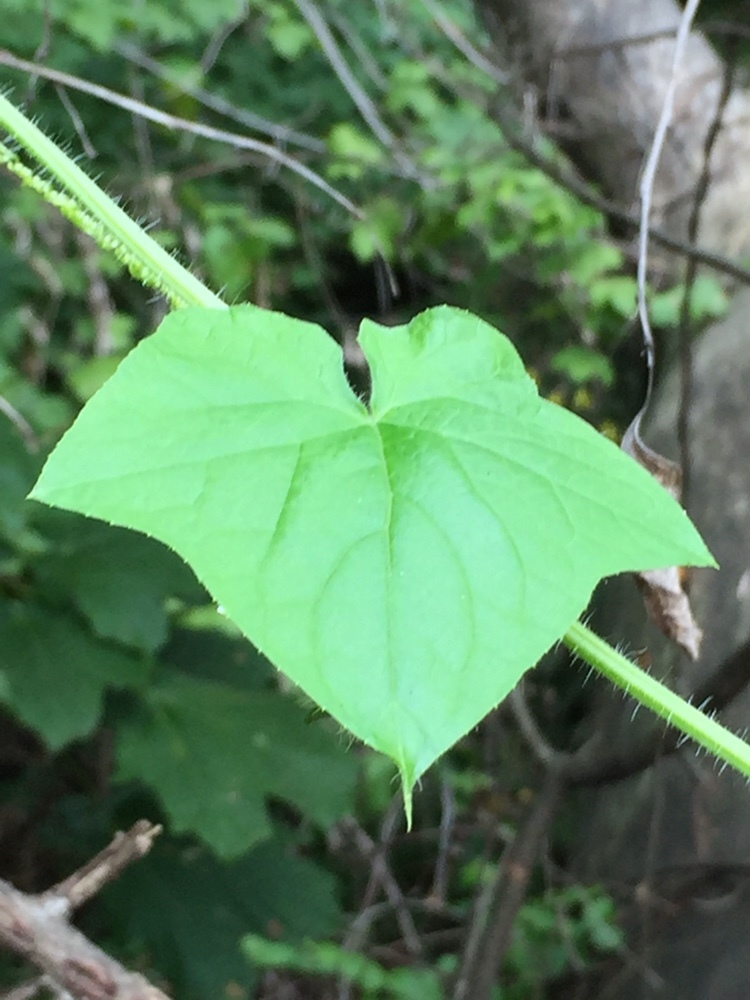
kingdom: Plantae
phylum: Tracheophyta
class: Magnoliopsida
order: Cucurbitales
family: Cucurbitaceae
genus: Sicyos
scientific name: Sicyos angulatus
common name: Angled burr cucumber
